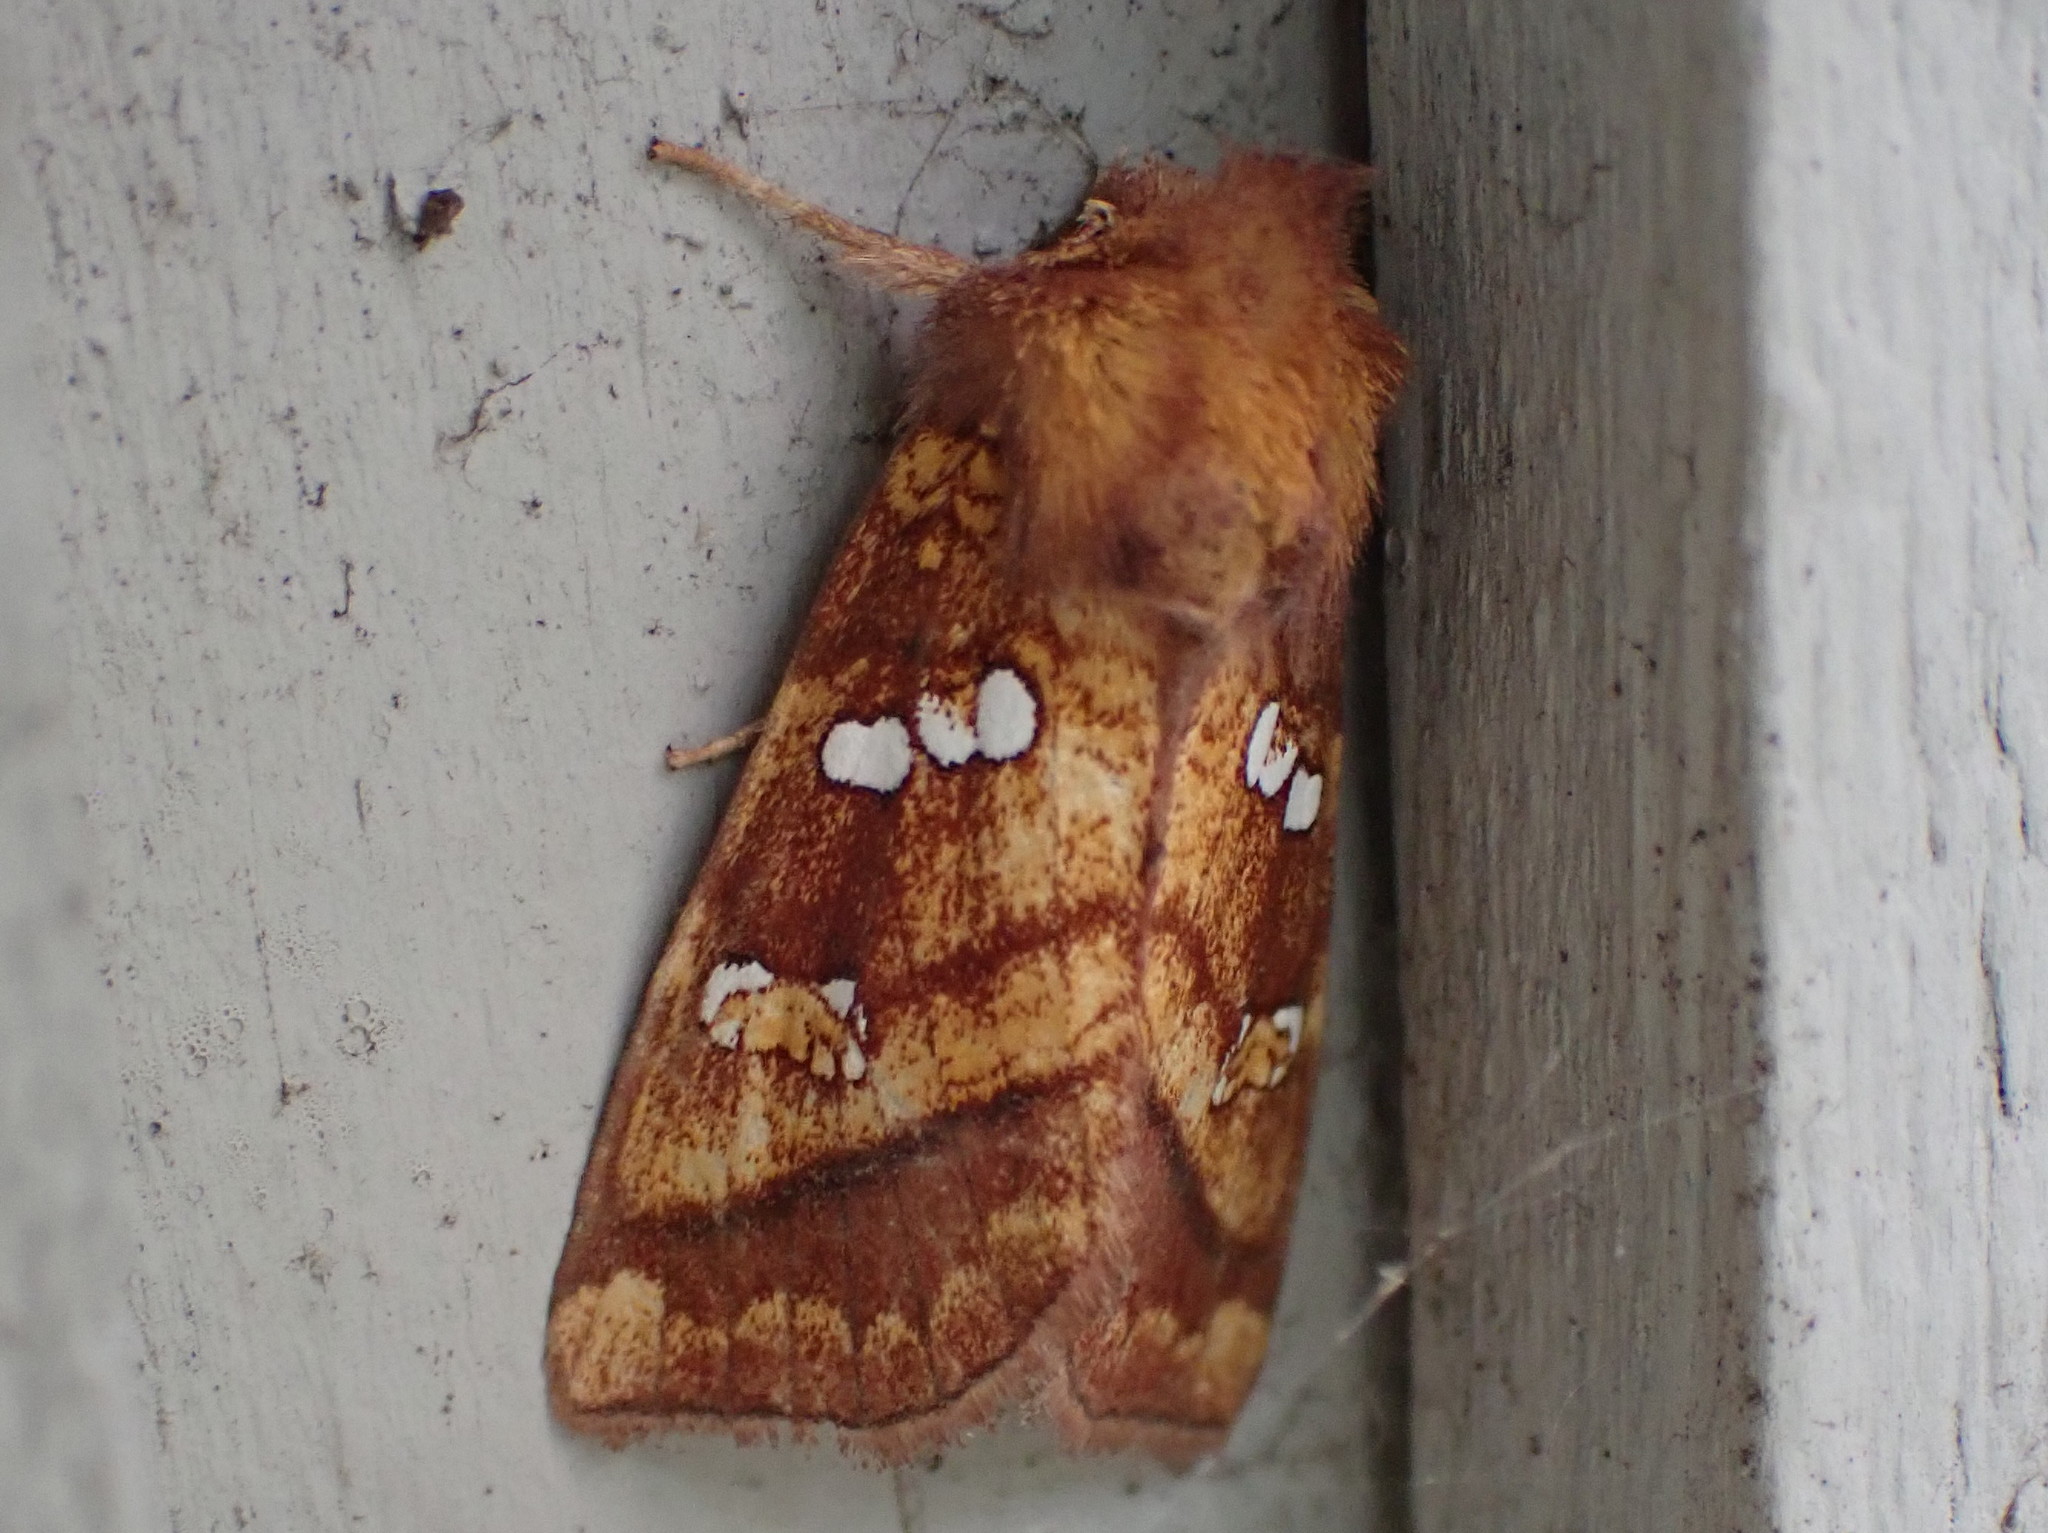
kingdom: Animalia
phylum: Arthropoda
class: Insecta
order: Lepidoptera
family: Noctuidae
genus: Papaipema
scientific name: Papaipema pterisii
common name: Bracken borer moth
